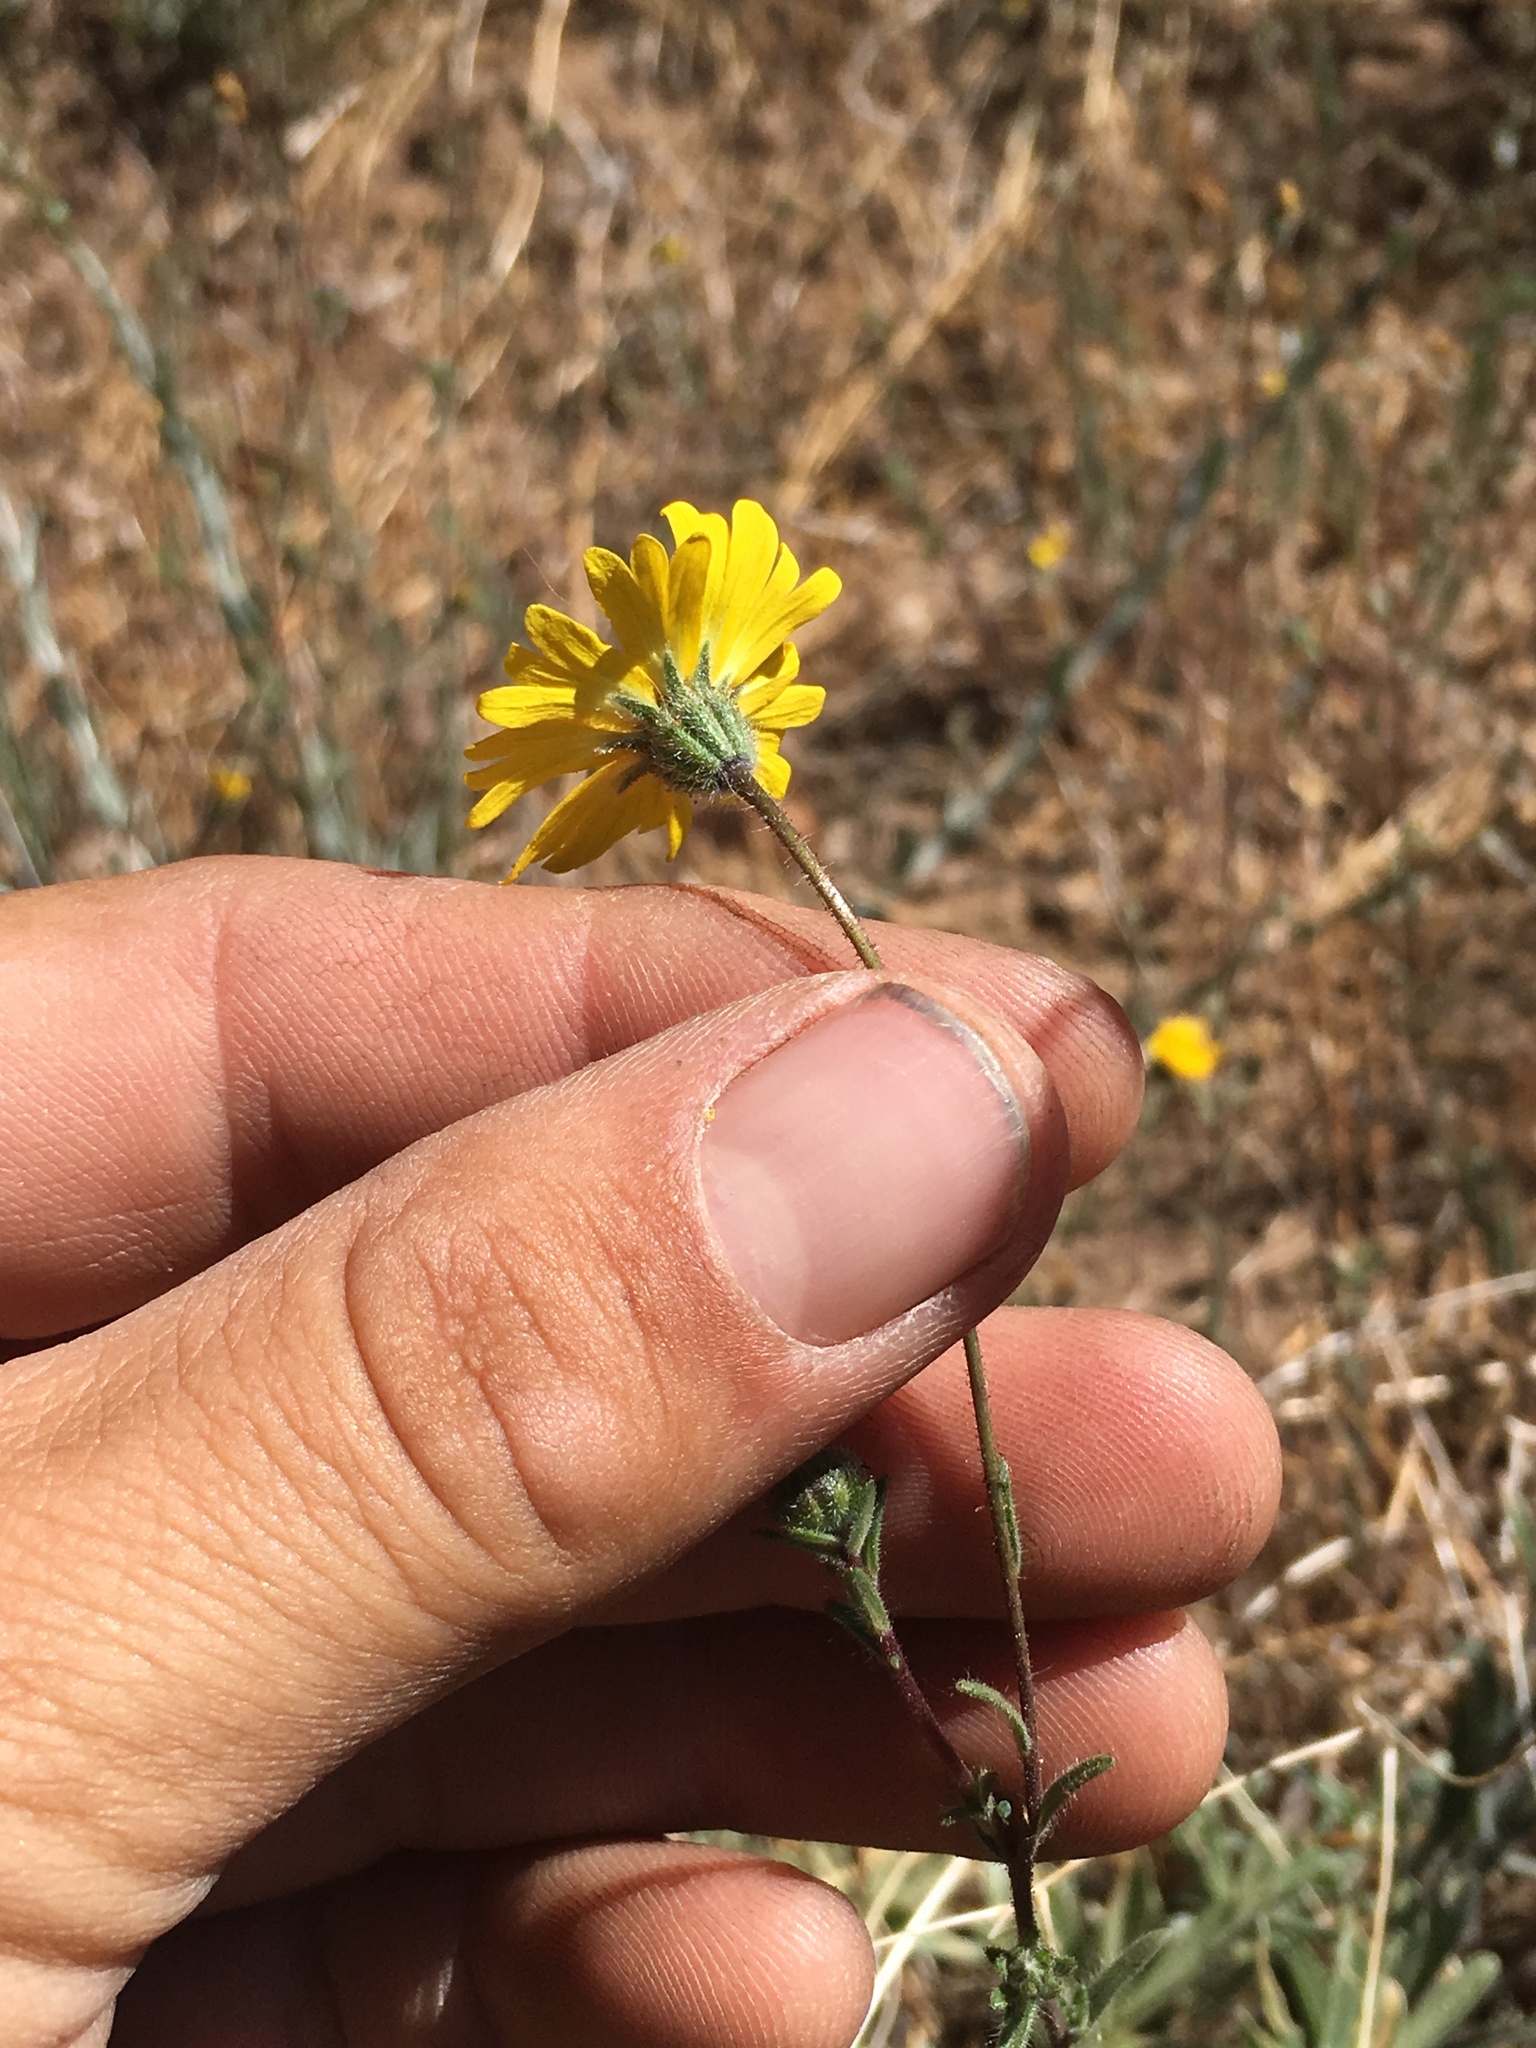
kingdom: Plantae
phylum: Tracheophyta
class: Magnoliopsida
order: Asterales
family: Asteraceae
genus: Madia
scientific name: Madia elegans
